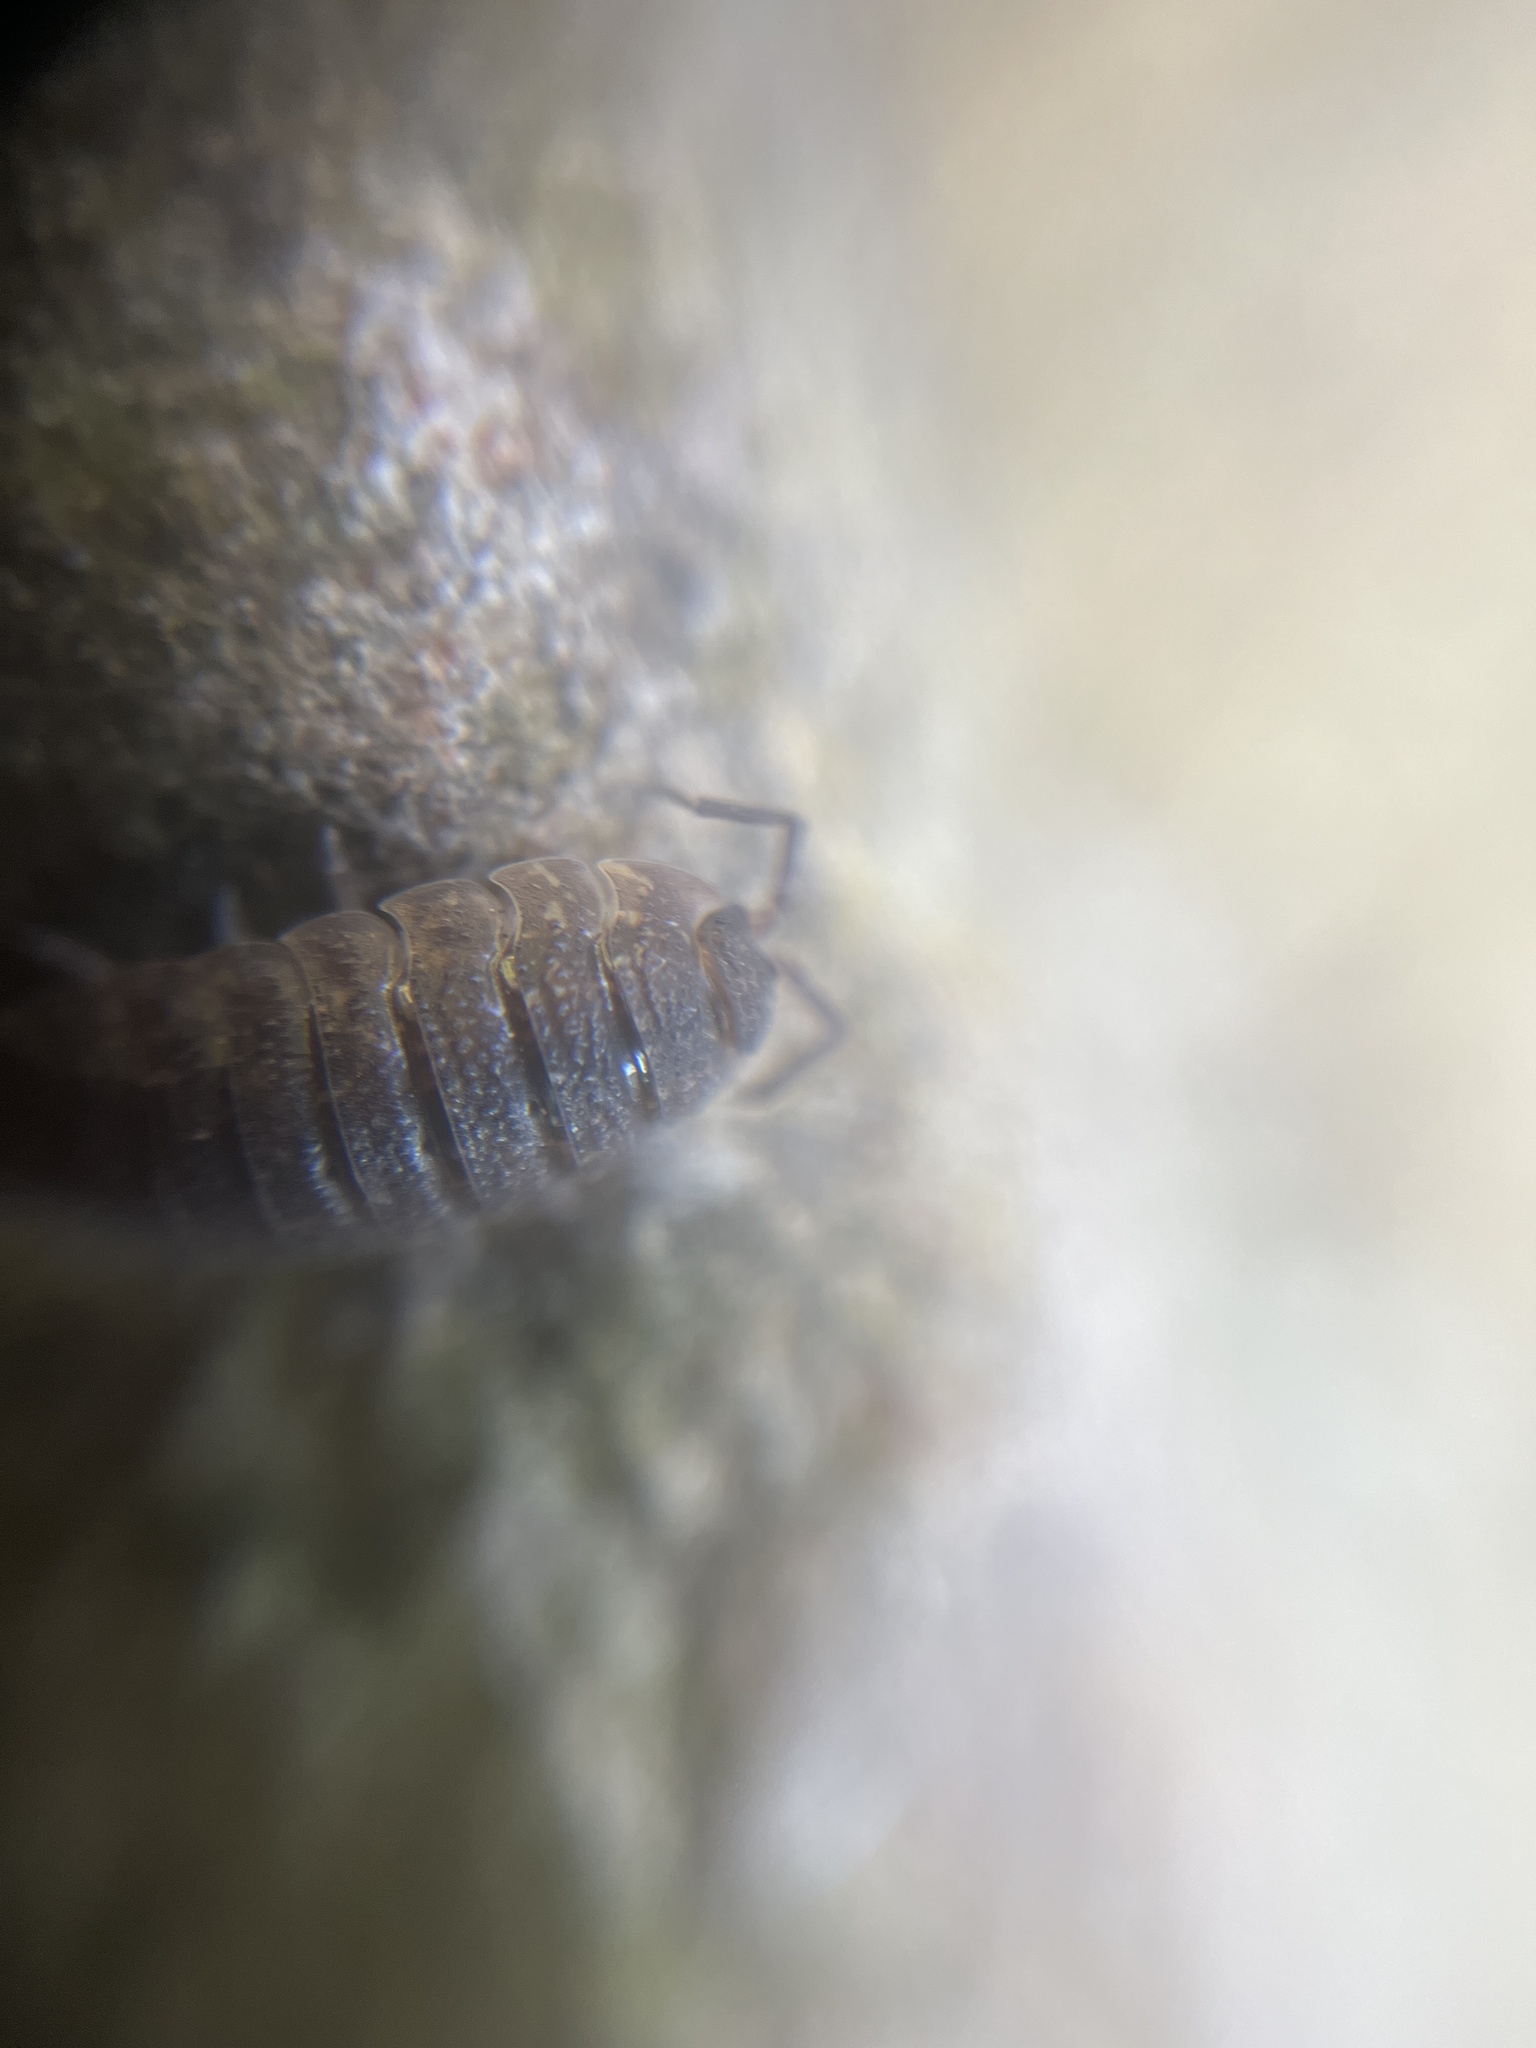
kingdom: Animalia
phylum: Arthropoda
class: Malacostraca
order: Isopoda
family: Porcellionidae
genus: Porcellio
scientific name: Porcellio scaber
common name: Common rough woodlouse
